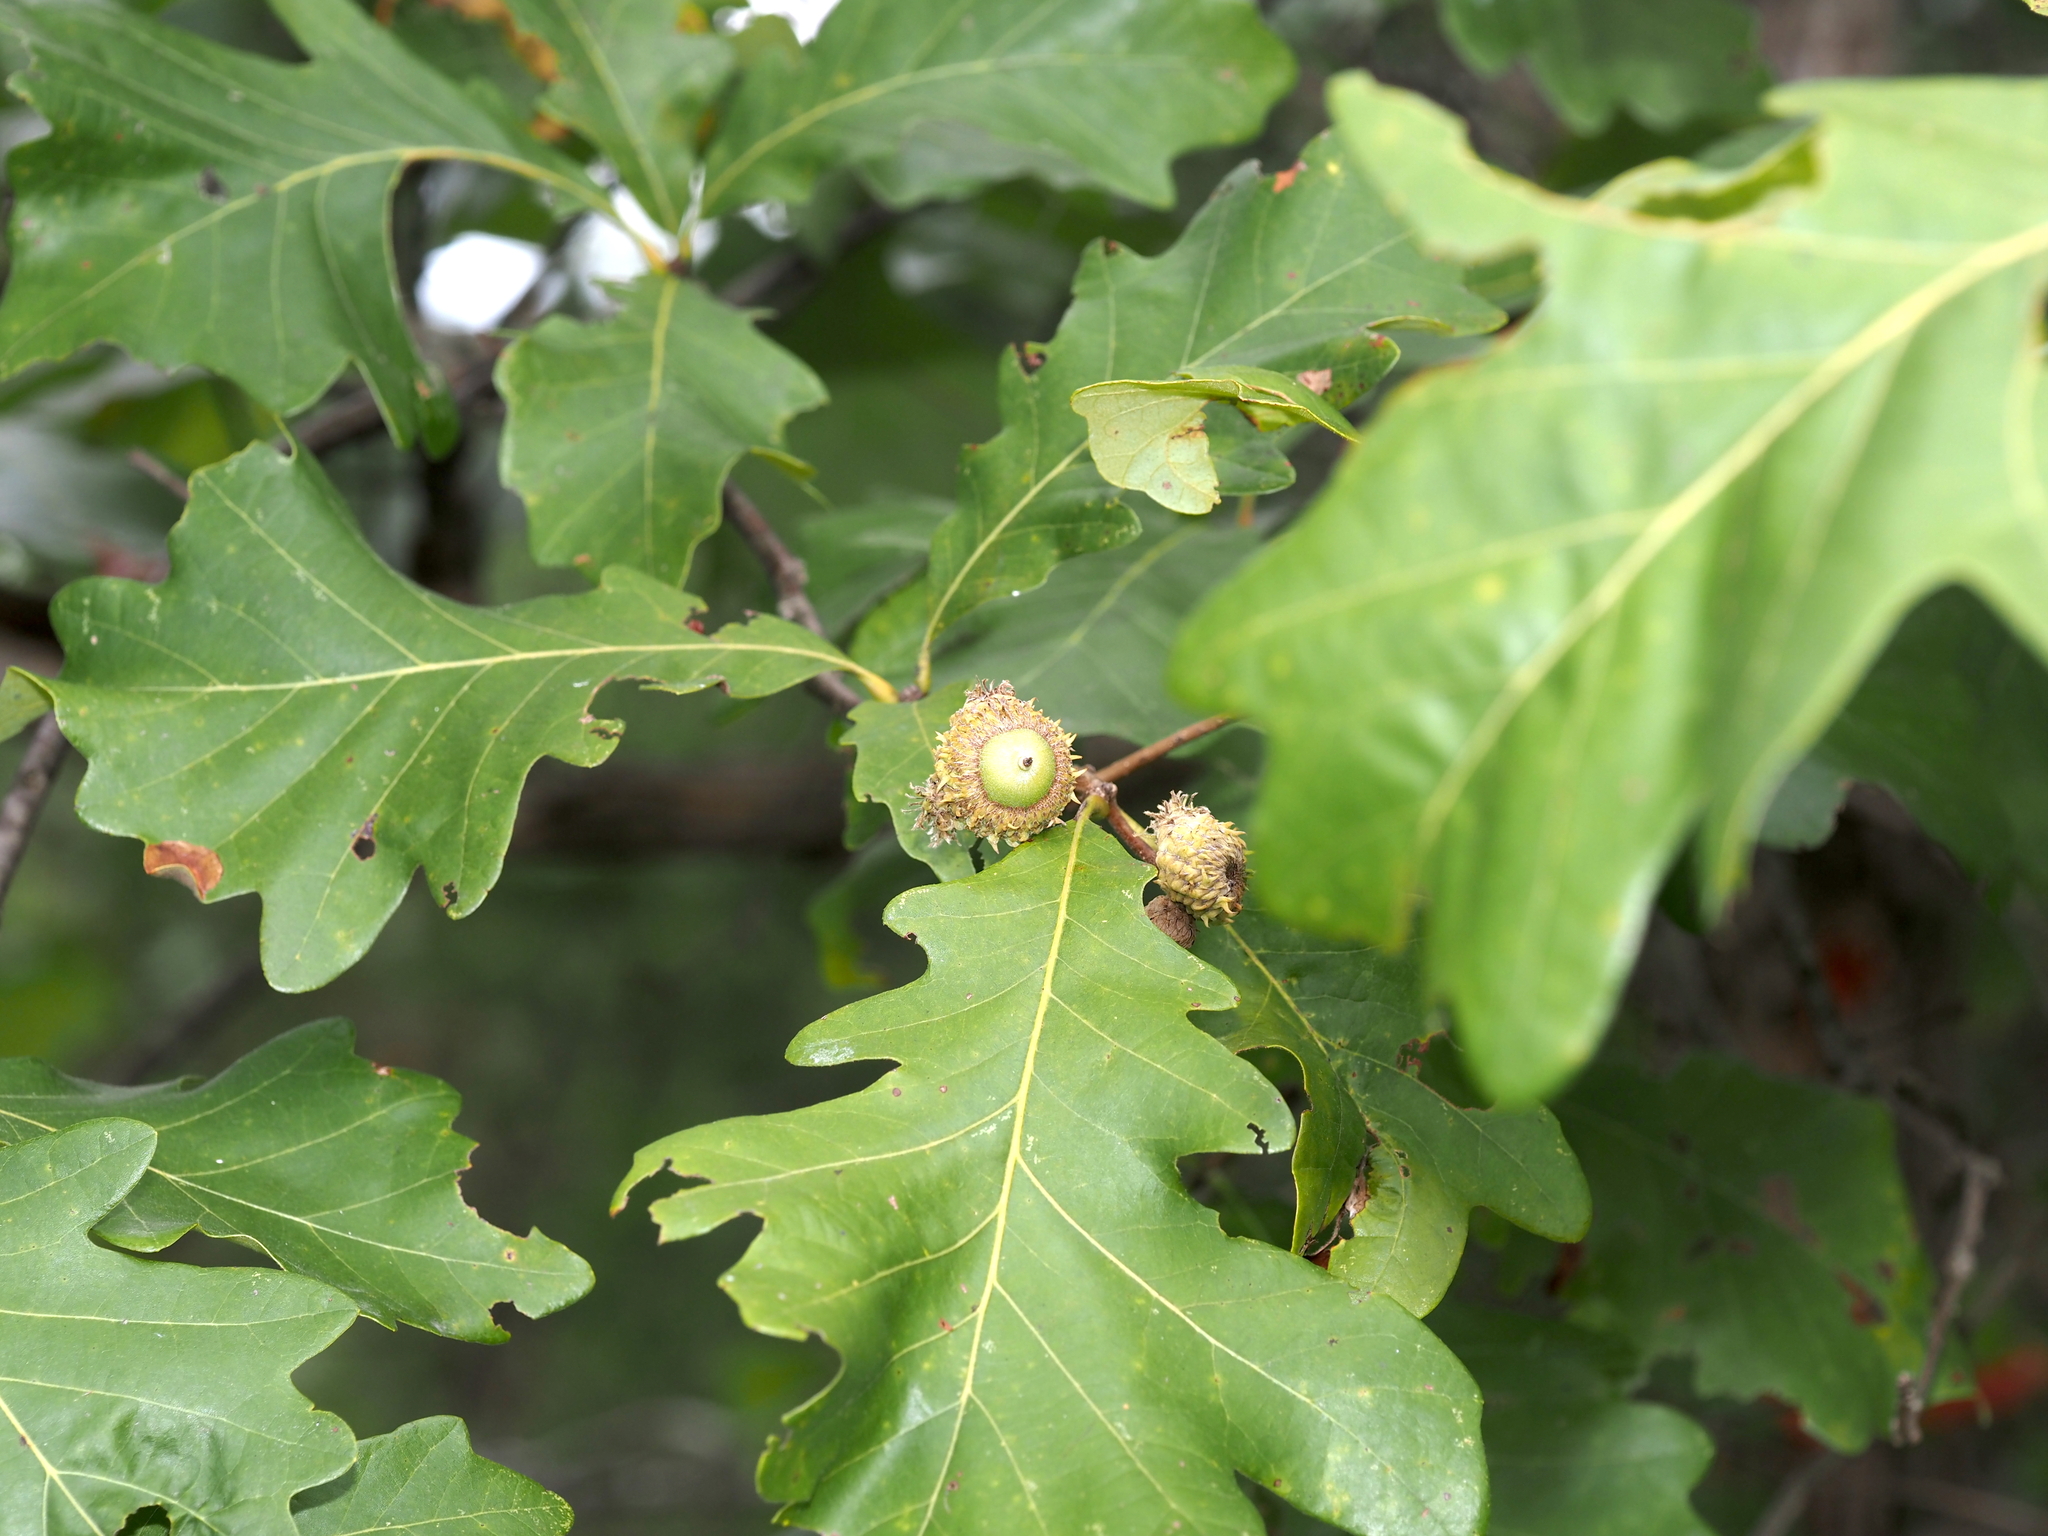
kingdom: Animalia
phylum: Arthropoda
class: Insecta
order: Hymenoptera
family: Cynipidae
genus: Andricus
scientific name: Andricus
